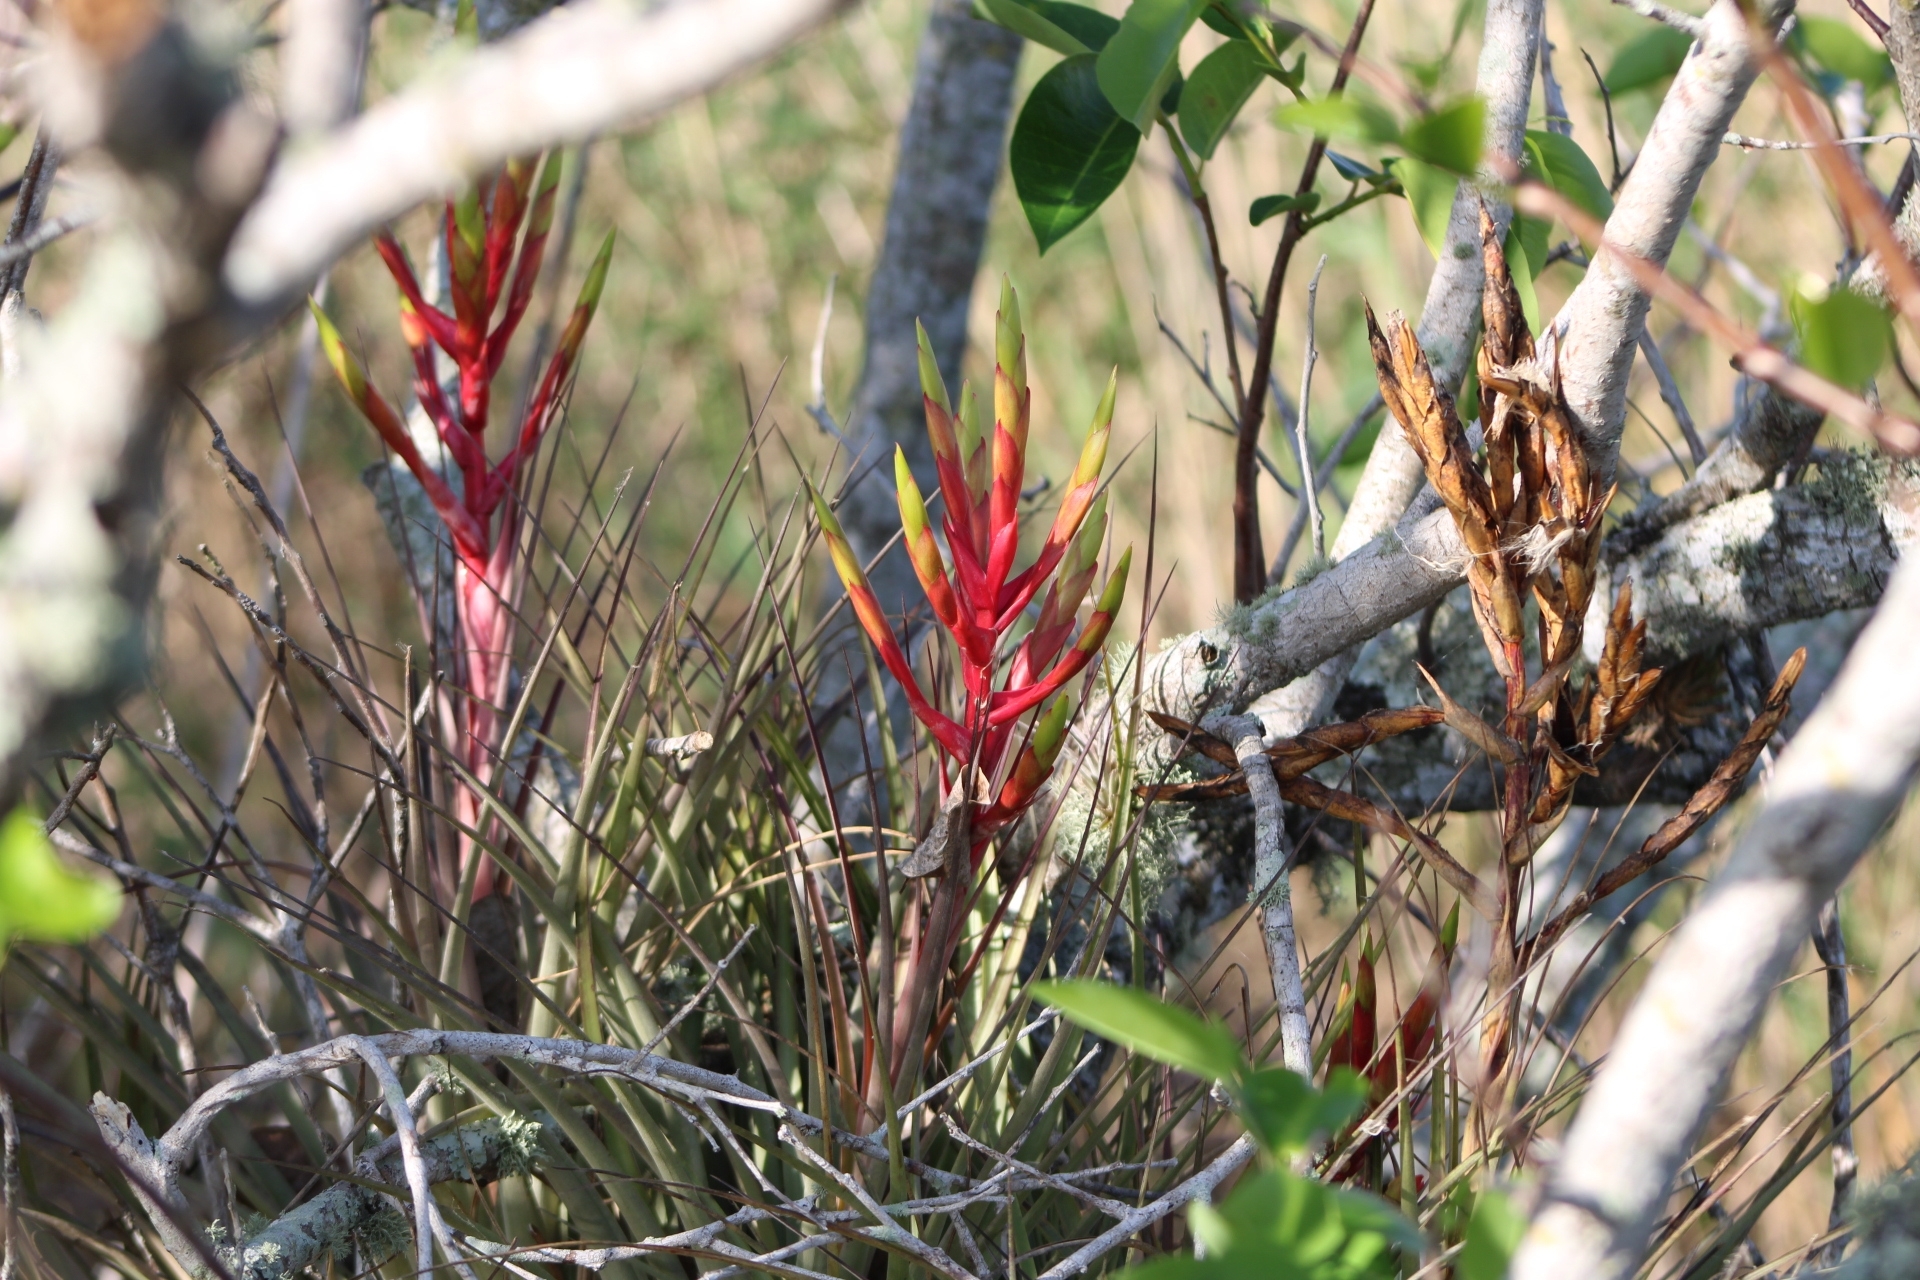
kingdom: Plantae
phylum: Tracheophyta
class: Liliopsida
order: Poales
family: Bromeliaceae
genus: Tillandsia
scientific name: Tillandsia fasciculata
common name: Giant airplant
